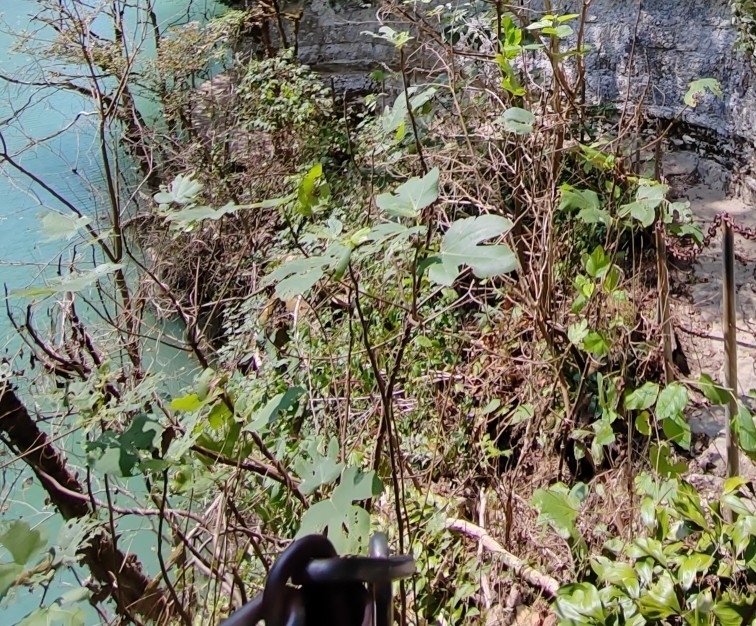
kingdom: Plantae
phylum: Tracheophyta
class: Magnoliopsida
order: Rosales
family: Moraceae
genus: Ficus
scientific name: Ficus carica
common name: Fig
